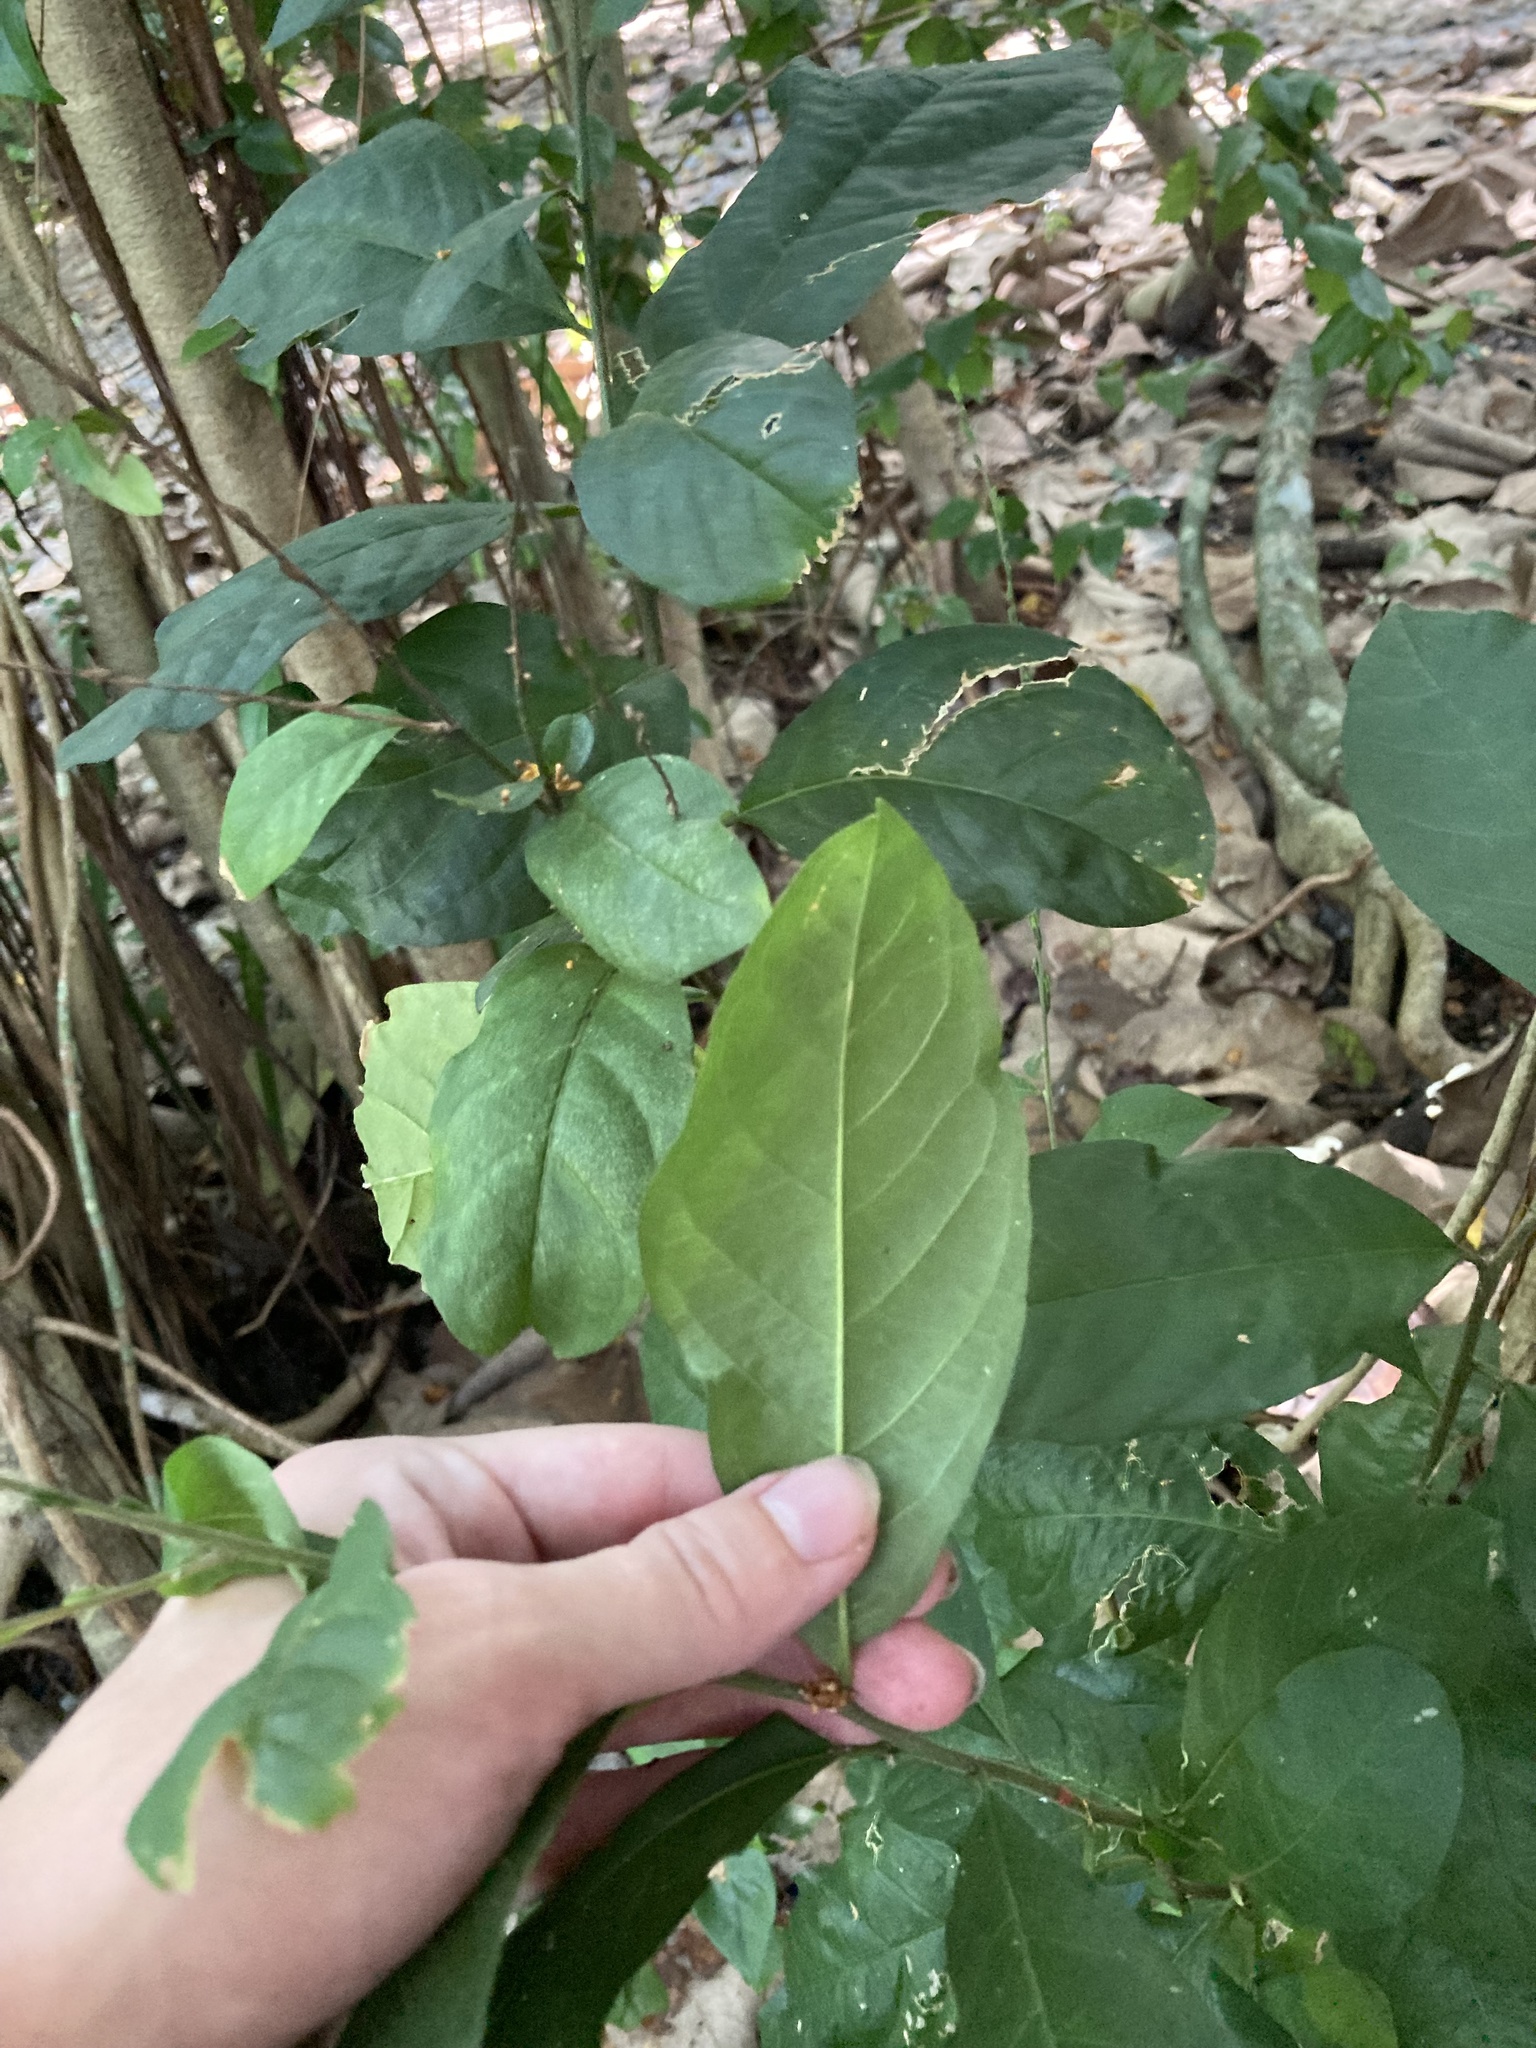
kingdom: Plantae
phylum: Tracheophyta
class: Magnoliopsida
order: Caryophyllales
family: Phytolaccaceae
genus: Petiveria
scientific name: Petiveria alliacea
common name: Garlicweed
